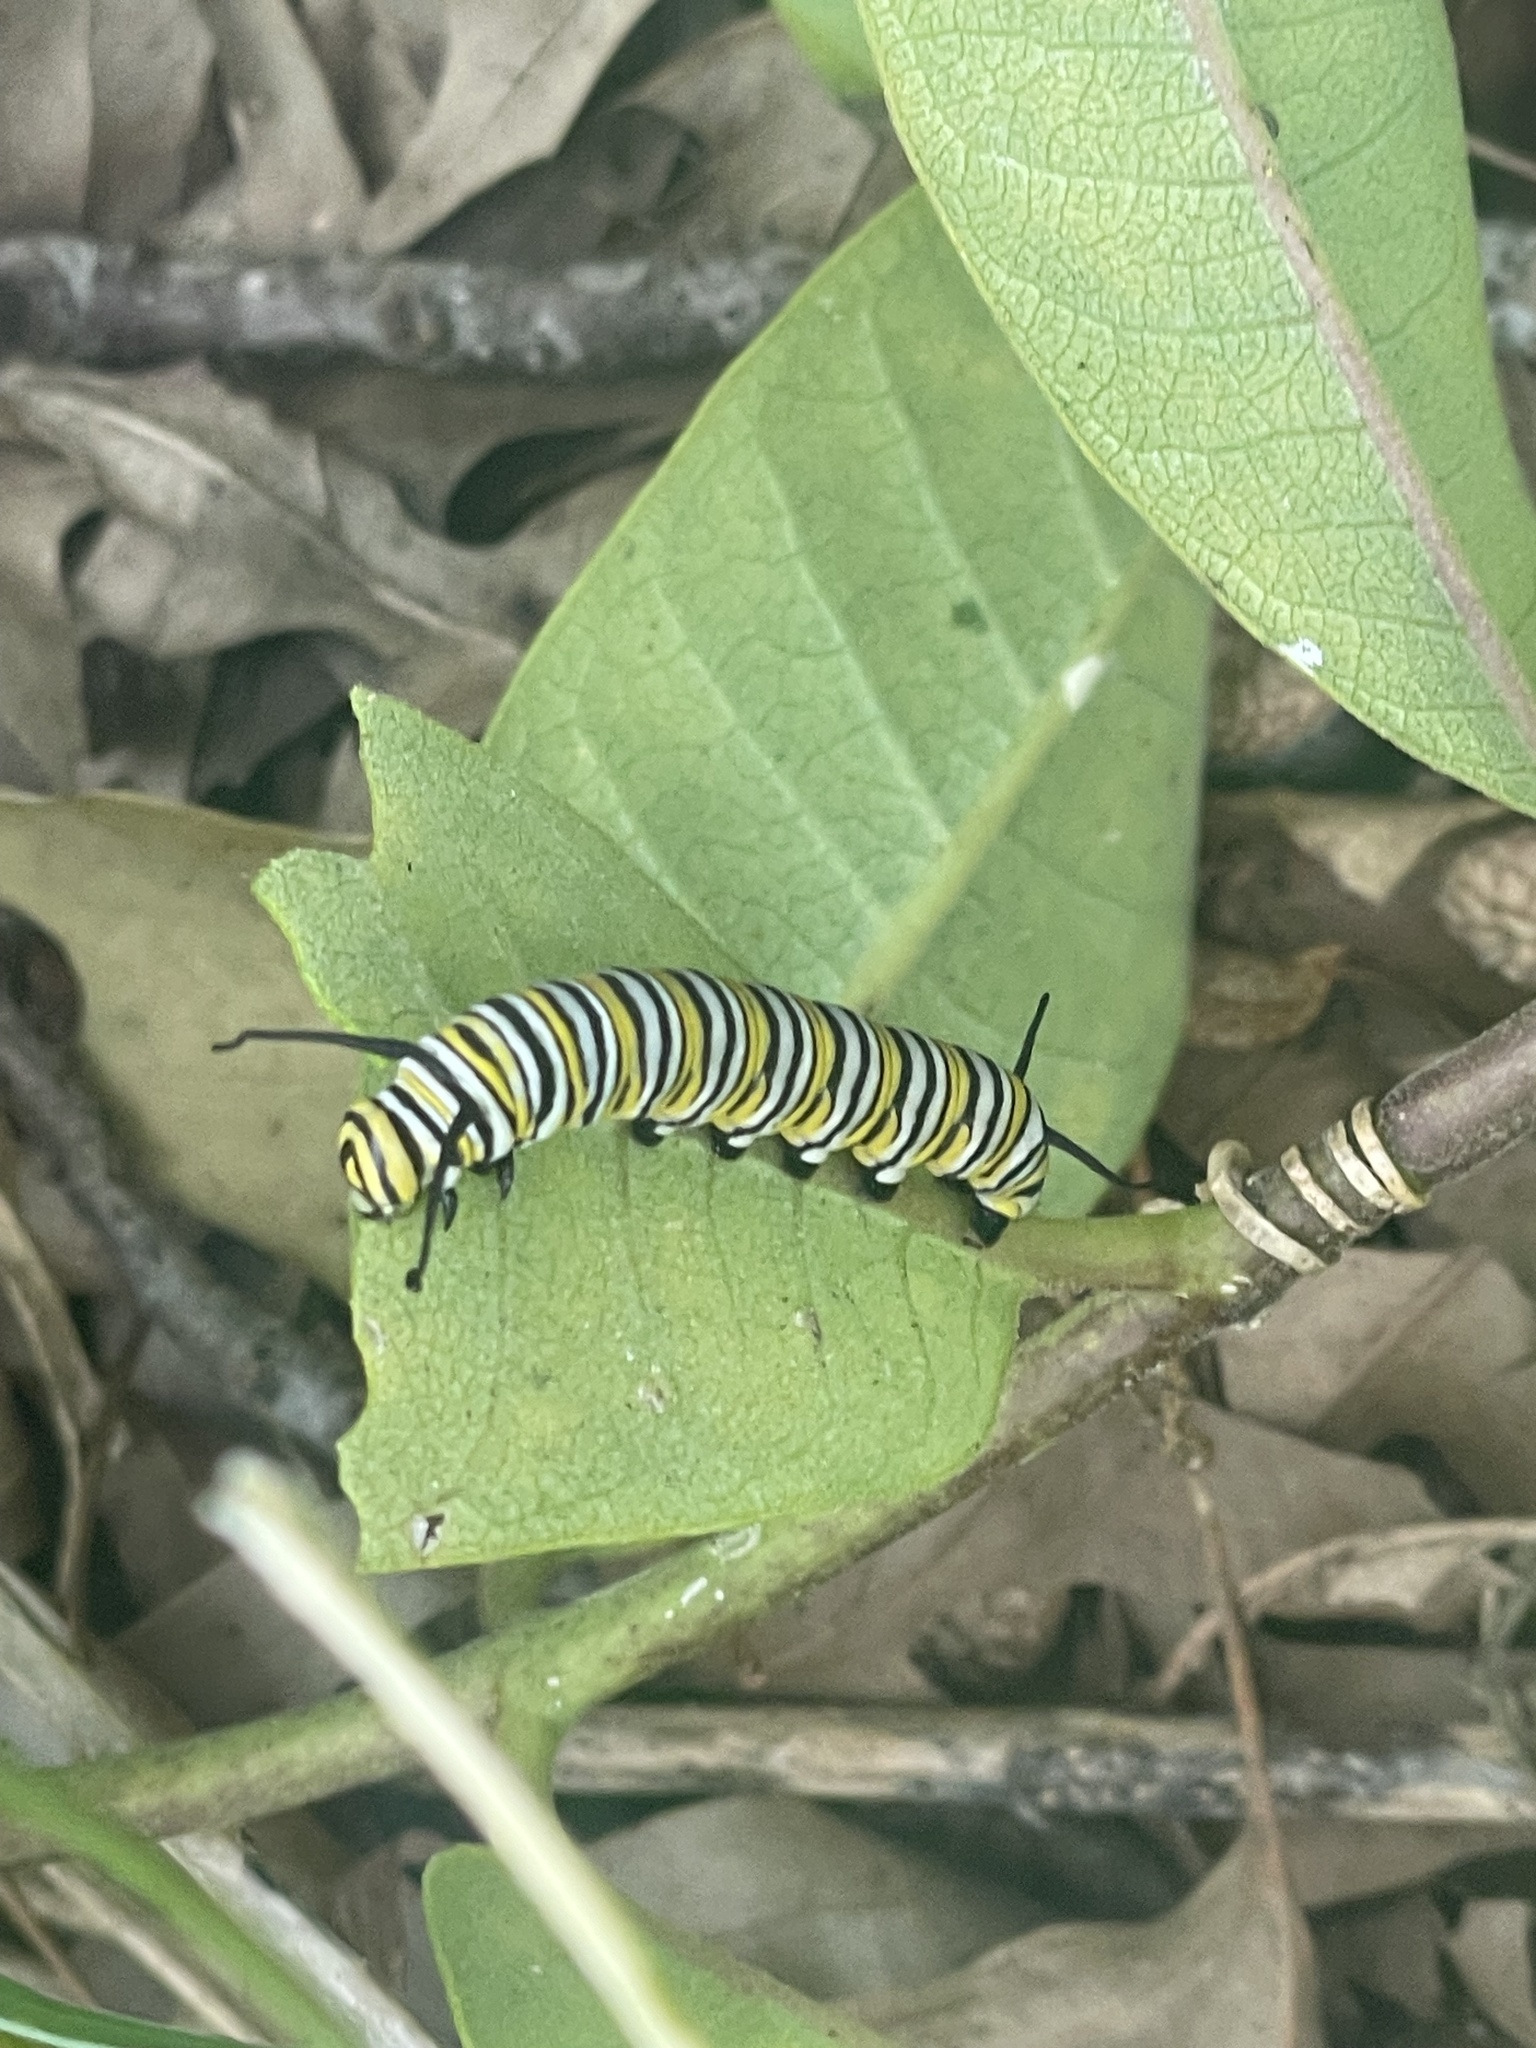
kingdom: Animalia
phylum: Arthropoda
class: Insecta
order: Lepidoptera
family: Nymphalidae
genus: Danaus
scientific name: Danaus plexippus
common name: Monarch
